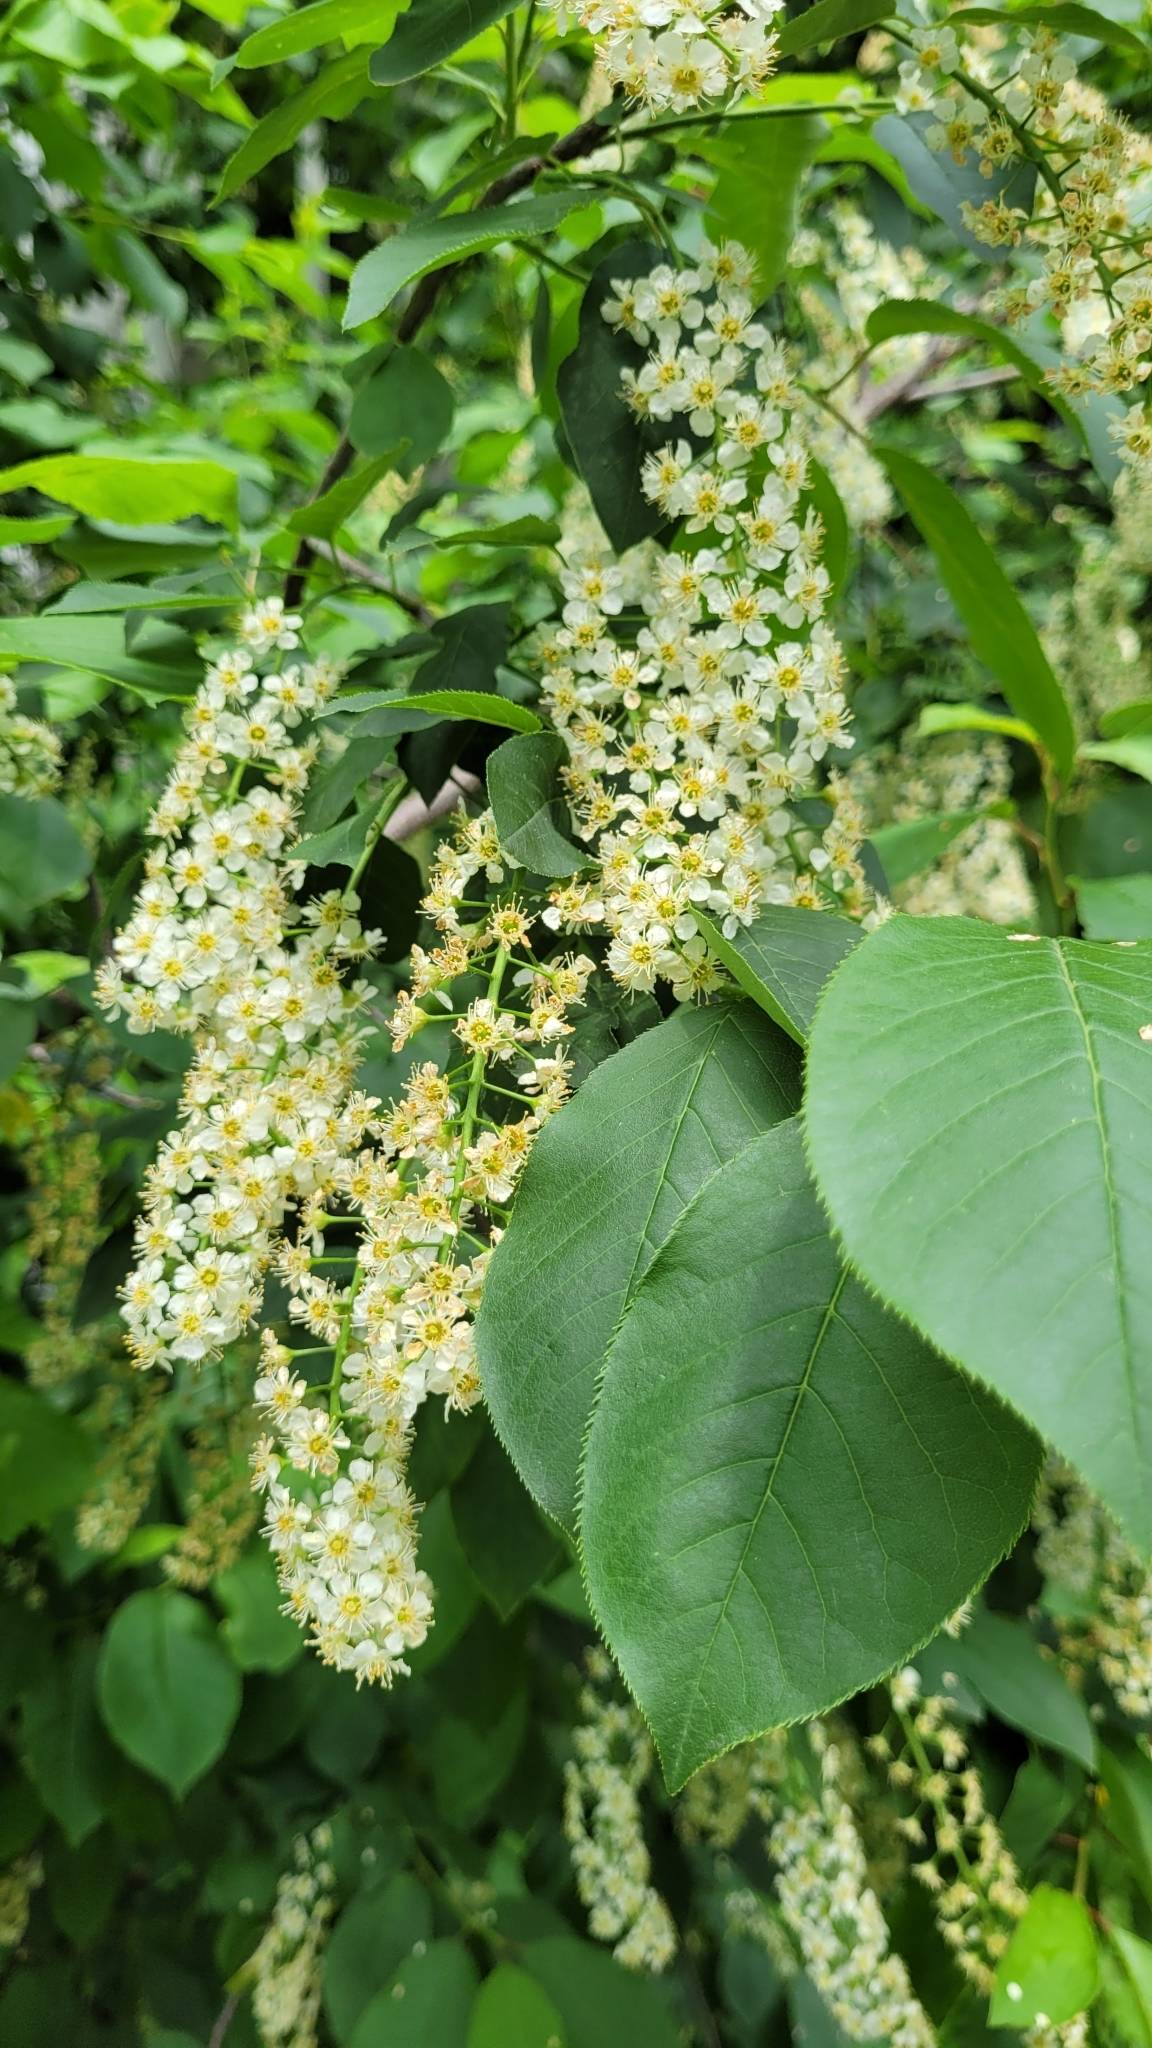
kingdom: Plantae
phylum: Tracheophyta
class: Magnoliopsida
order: Rosales
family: Rosaceae
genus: Prunus
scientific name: Prunus virginiana
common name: Chokecherry
